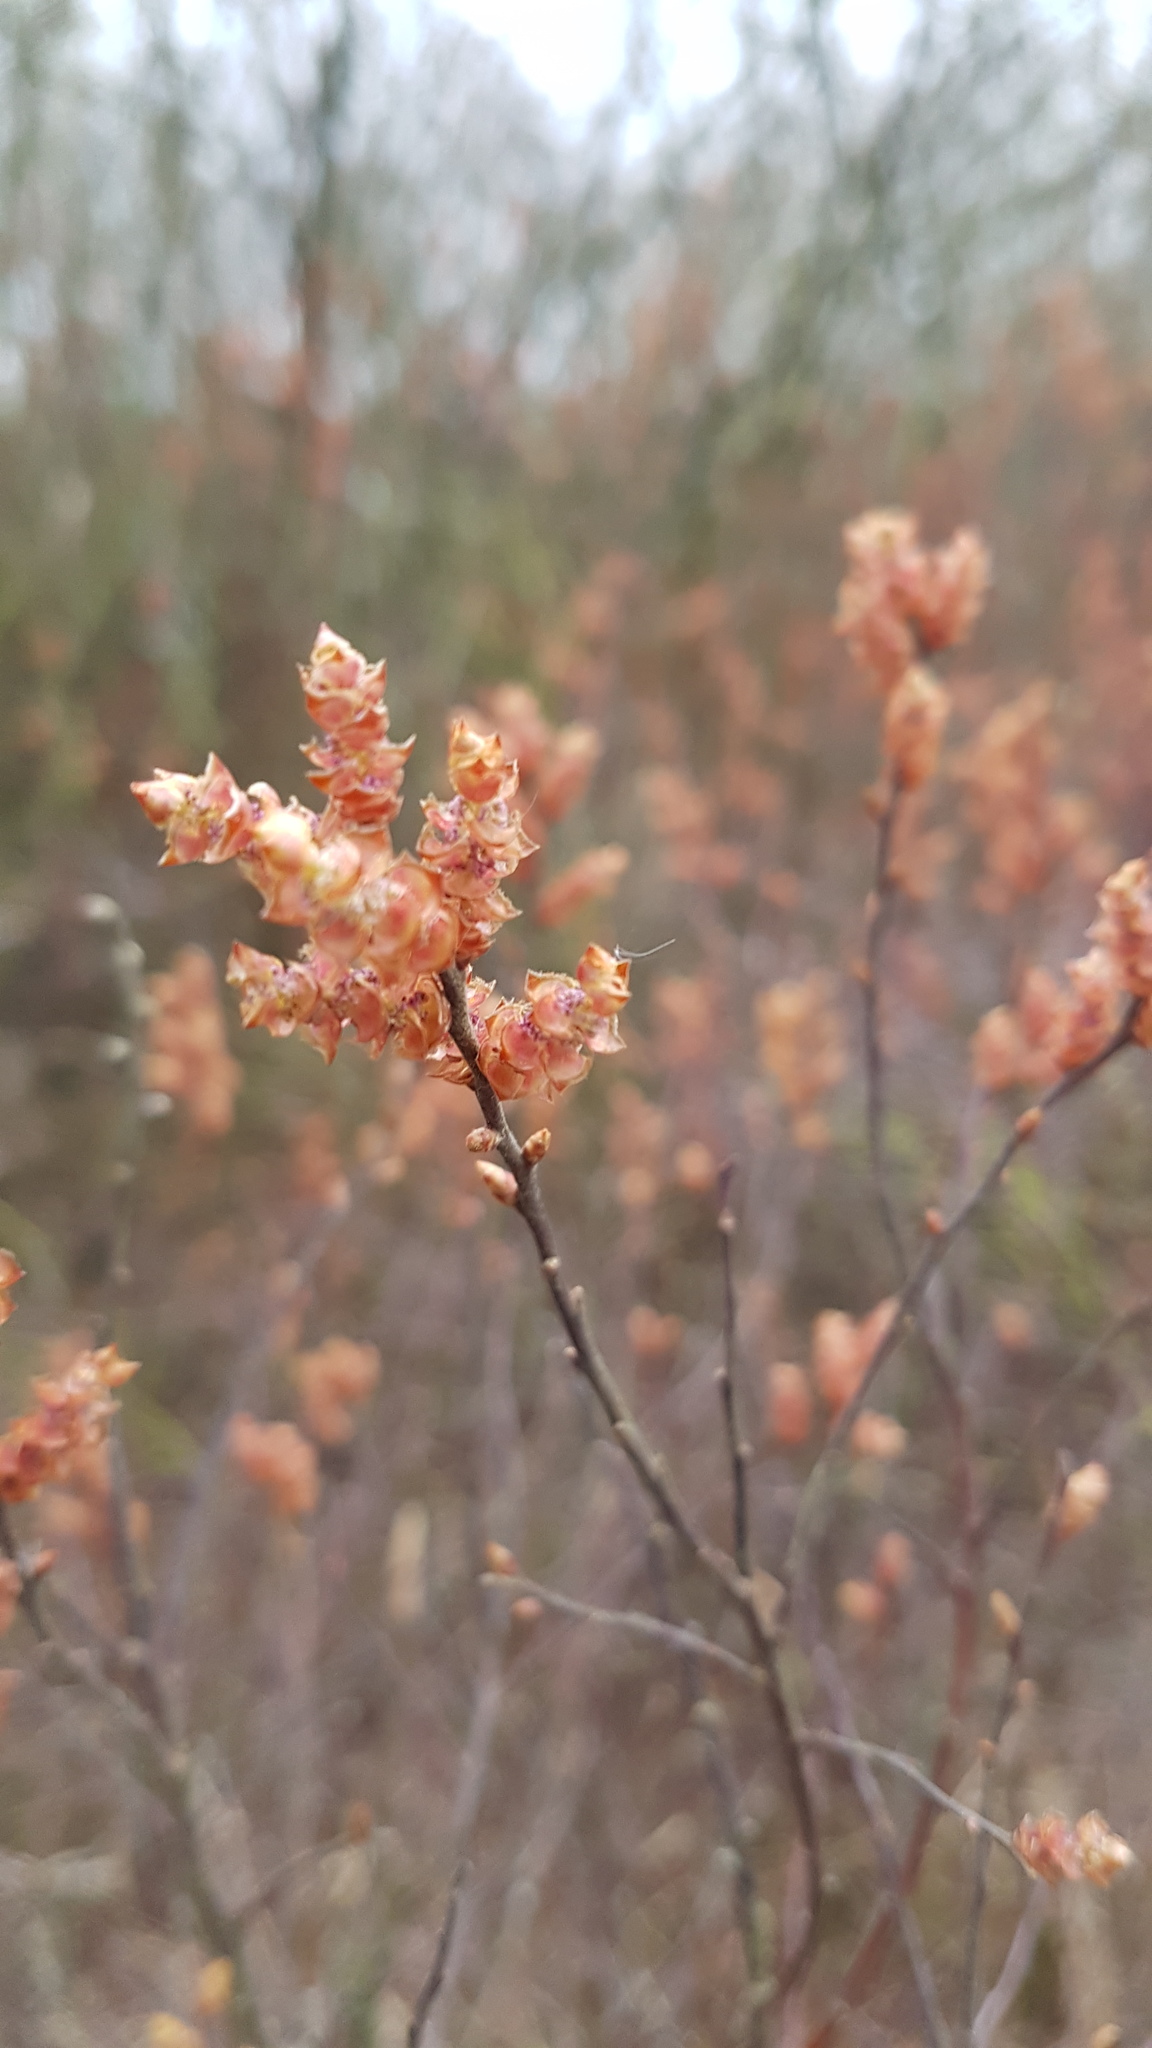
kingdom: Plantae
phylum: Tracheophyta
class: Magnoliopsida
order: Fagales
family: Myricaceae
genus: Myrica
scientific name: Myrica gale
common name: Sweet gale
